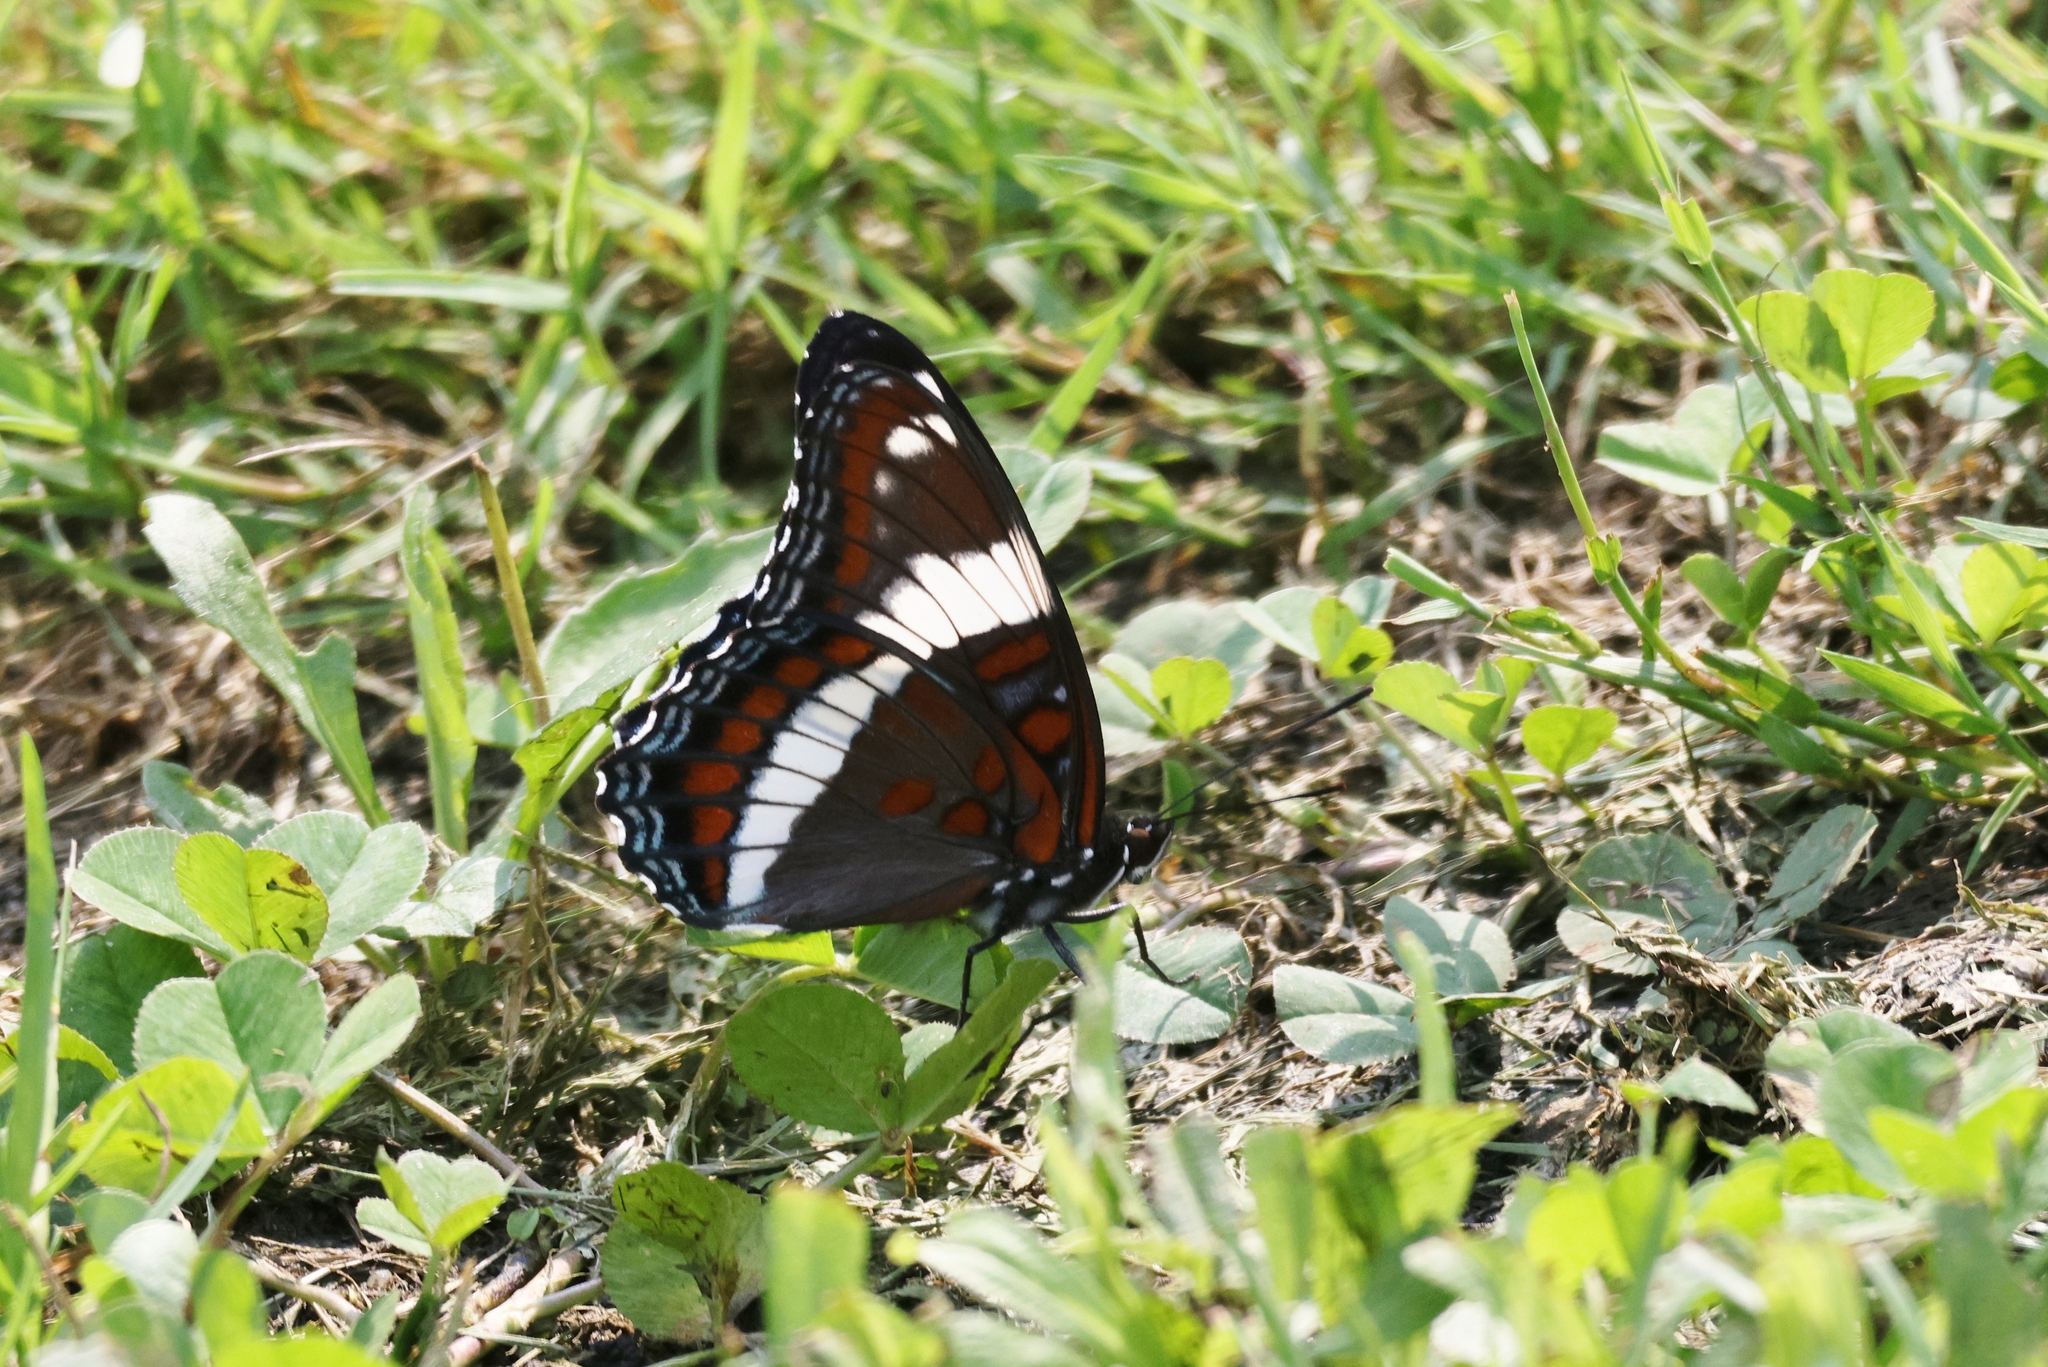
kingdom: Animalia
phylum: Arthropoda
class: Insecta
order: Lepidoptera
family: Nymphalidae
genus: Limenitis
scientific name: Limenitis arthemis
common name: Red-spotted admiral
